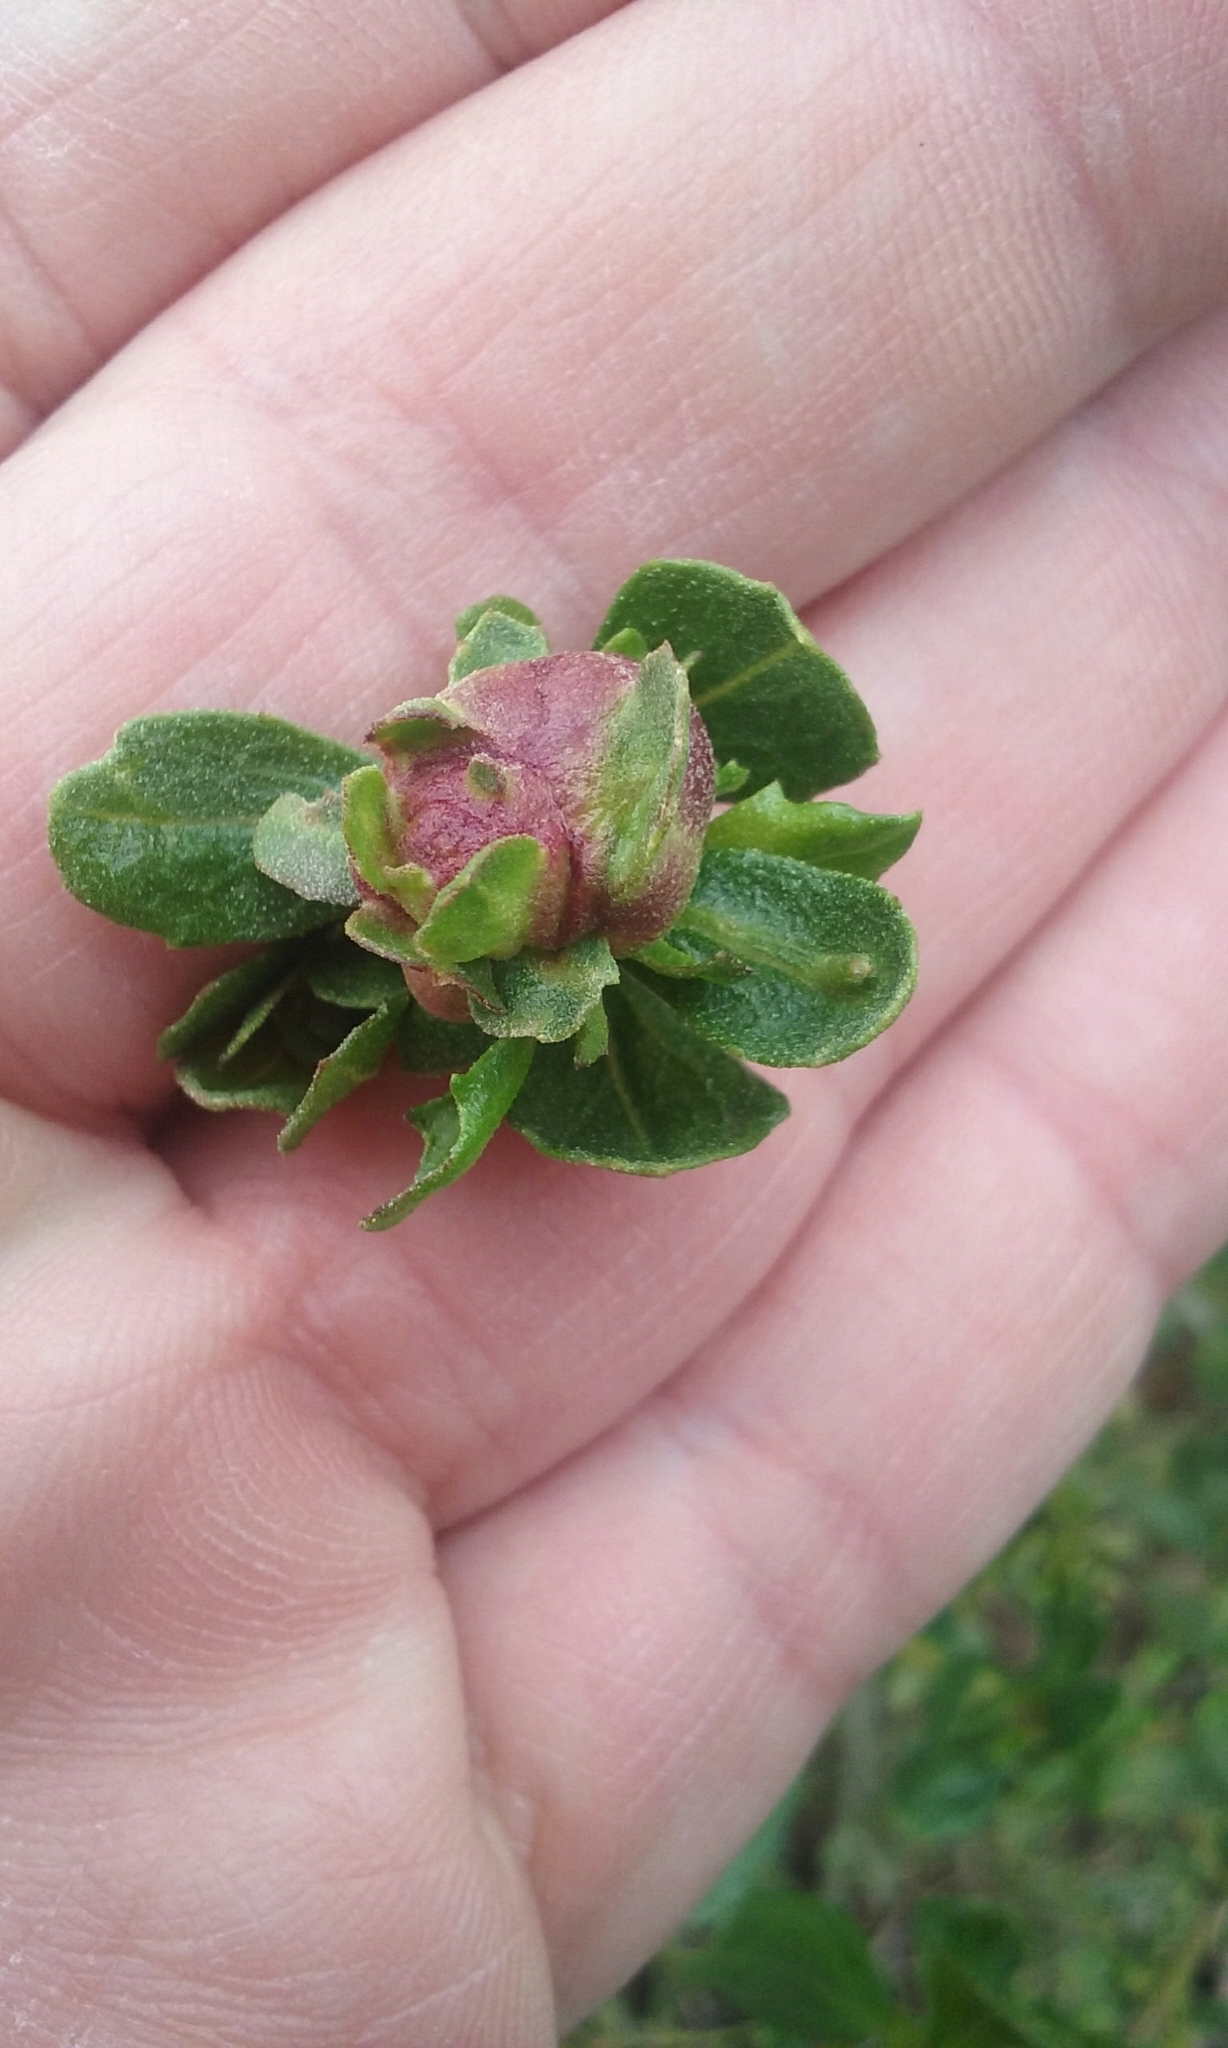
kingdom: Animalia
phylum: Arthropoda
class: Insecta
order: Diptera
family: Cecidomyiidae
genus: Rhopalomyia
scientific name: Rhopalomyia californica
